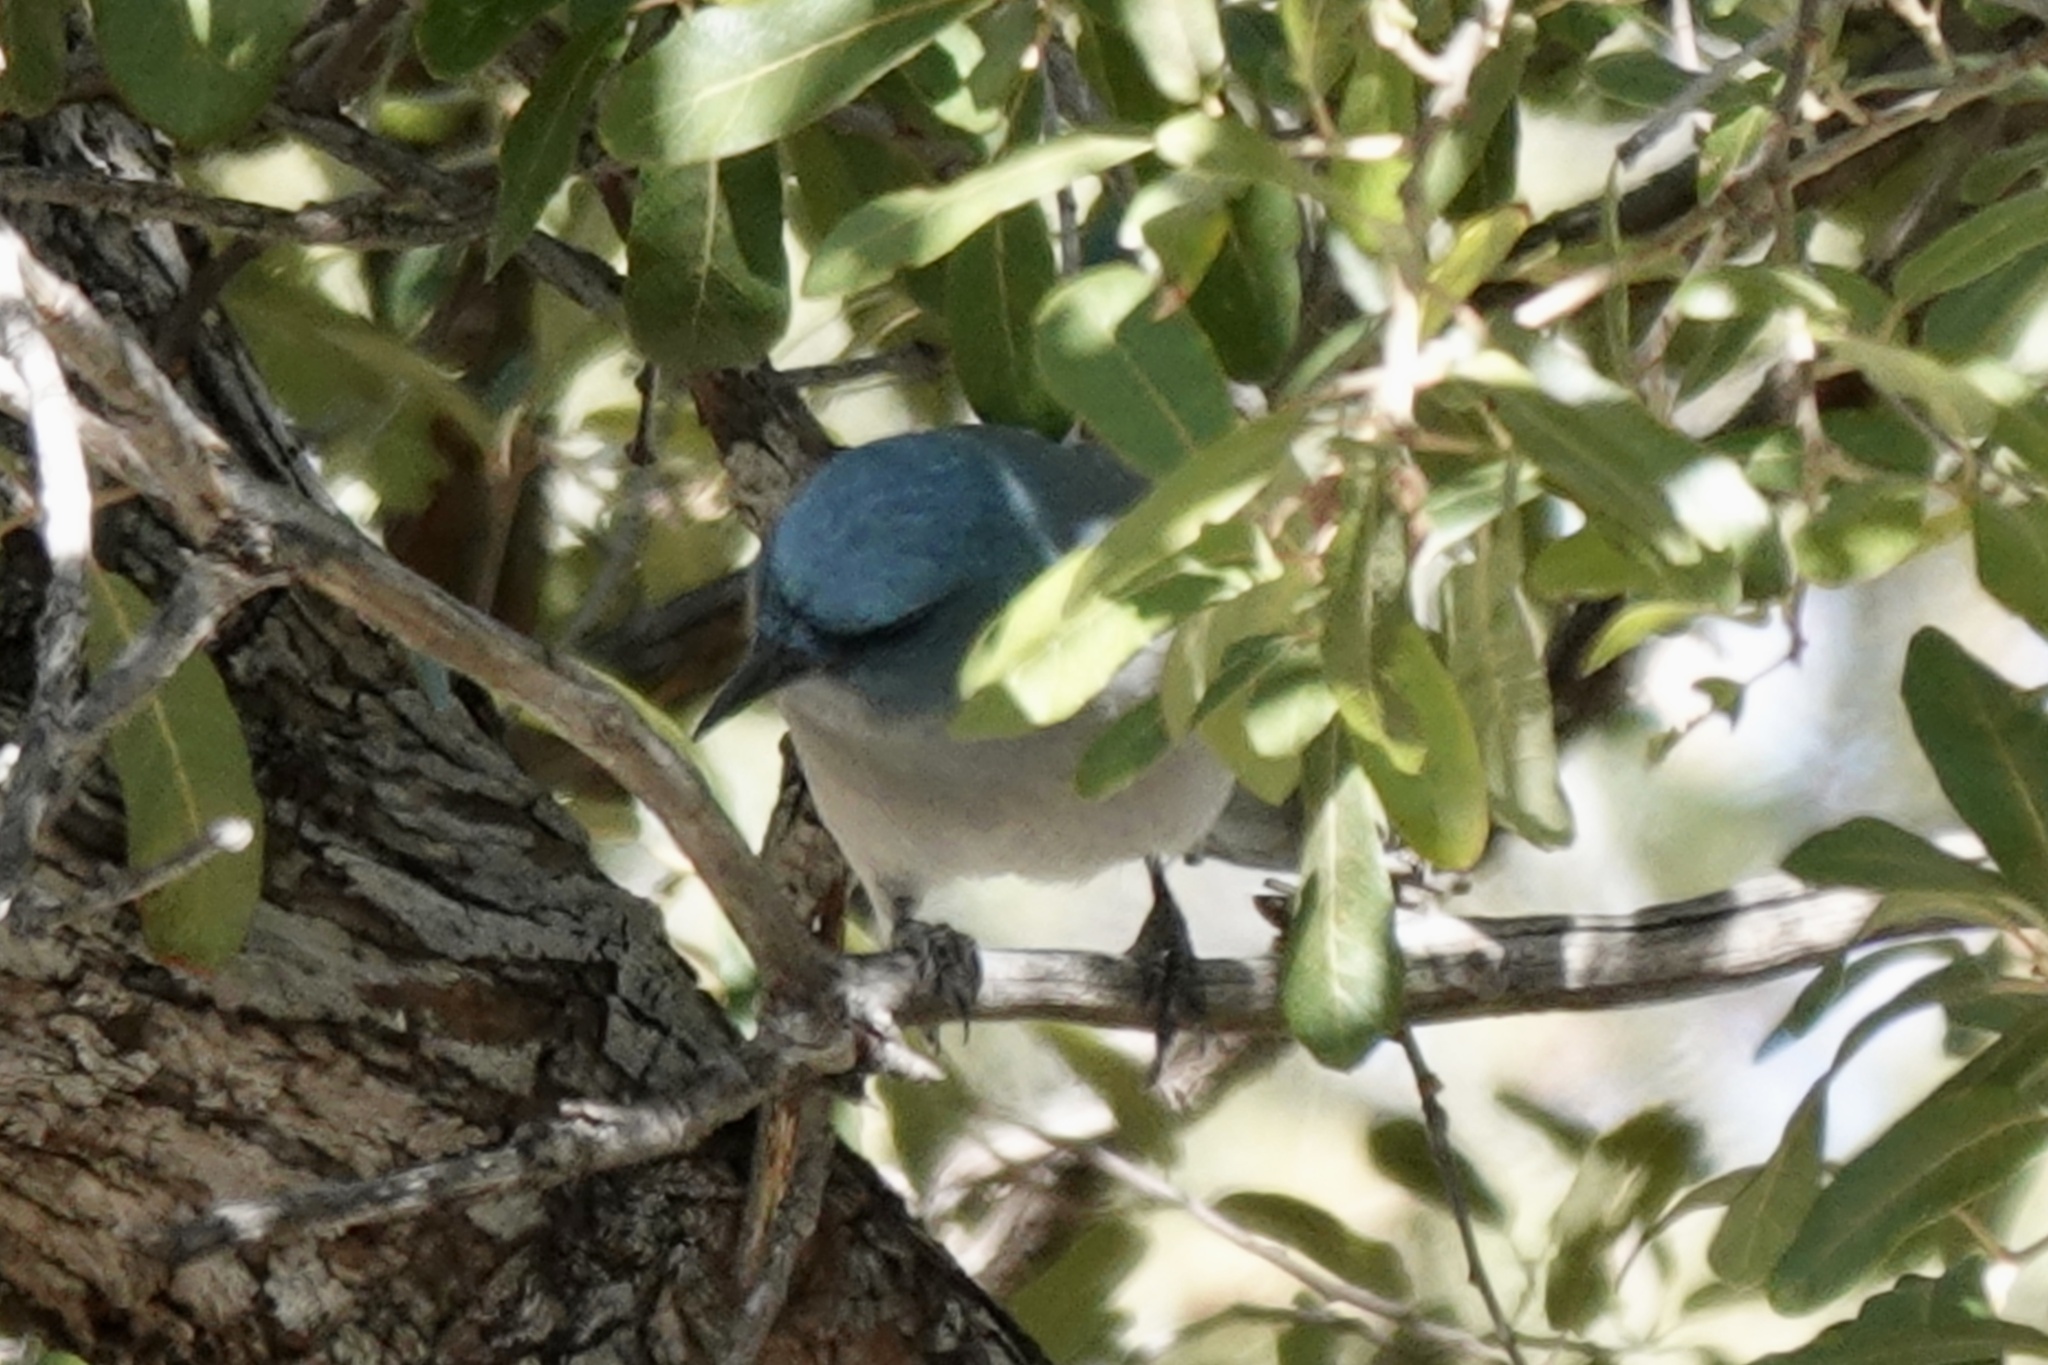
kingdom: Animalia
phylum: Chordata
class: Aves
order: Passeriformes
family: Corvidae
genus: Aphelocoma
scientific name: Aphelocoma wollweberi
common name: Mexican jay
